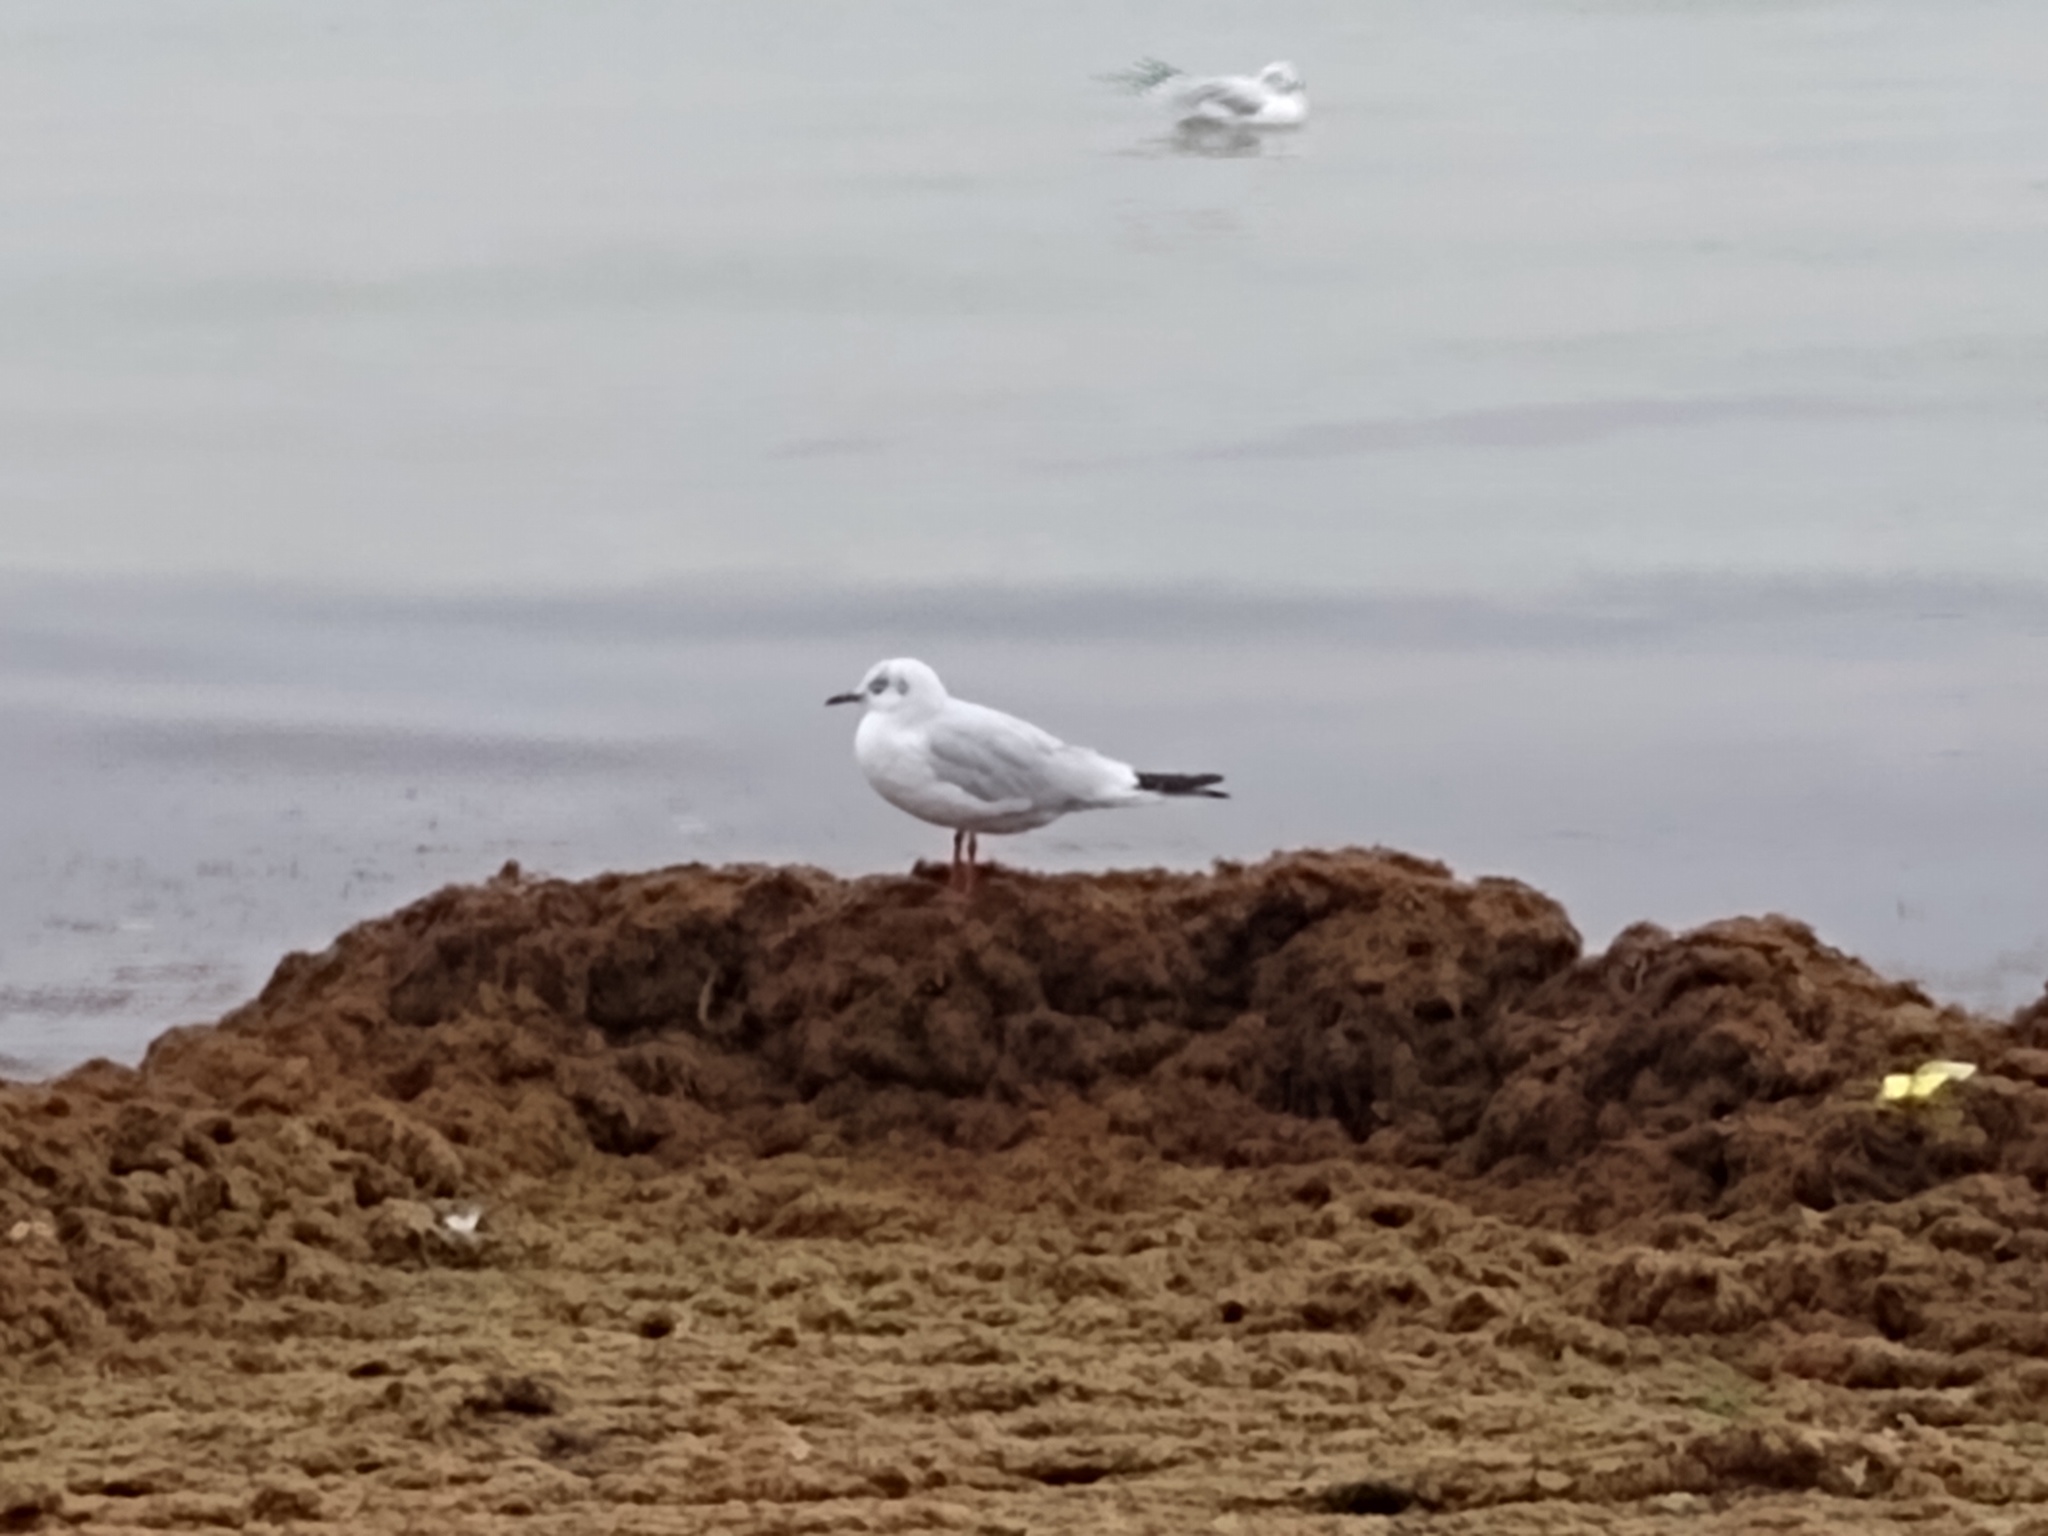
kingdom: Animalia
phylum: Chordata
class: Aves
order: Charadriiformes
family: Laridae
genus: Chroicocephalus
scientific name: Chroicocephalus ridibundus
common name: Black-headed gull
